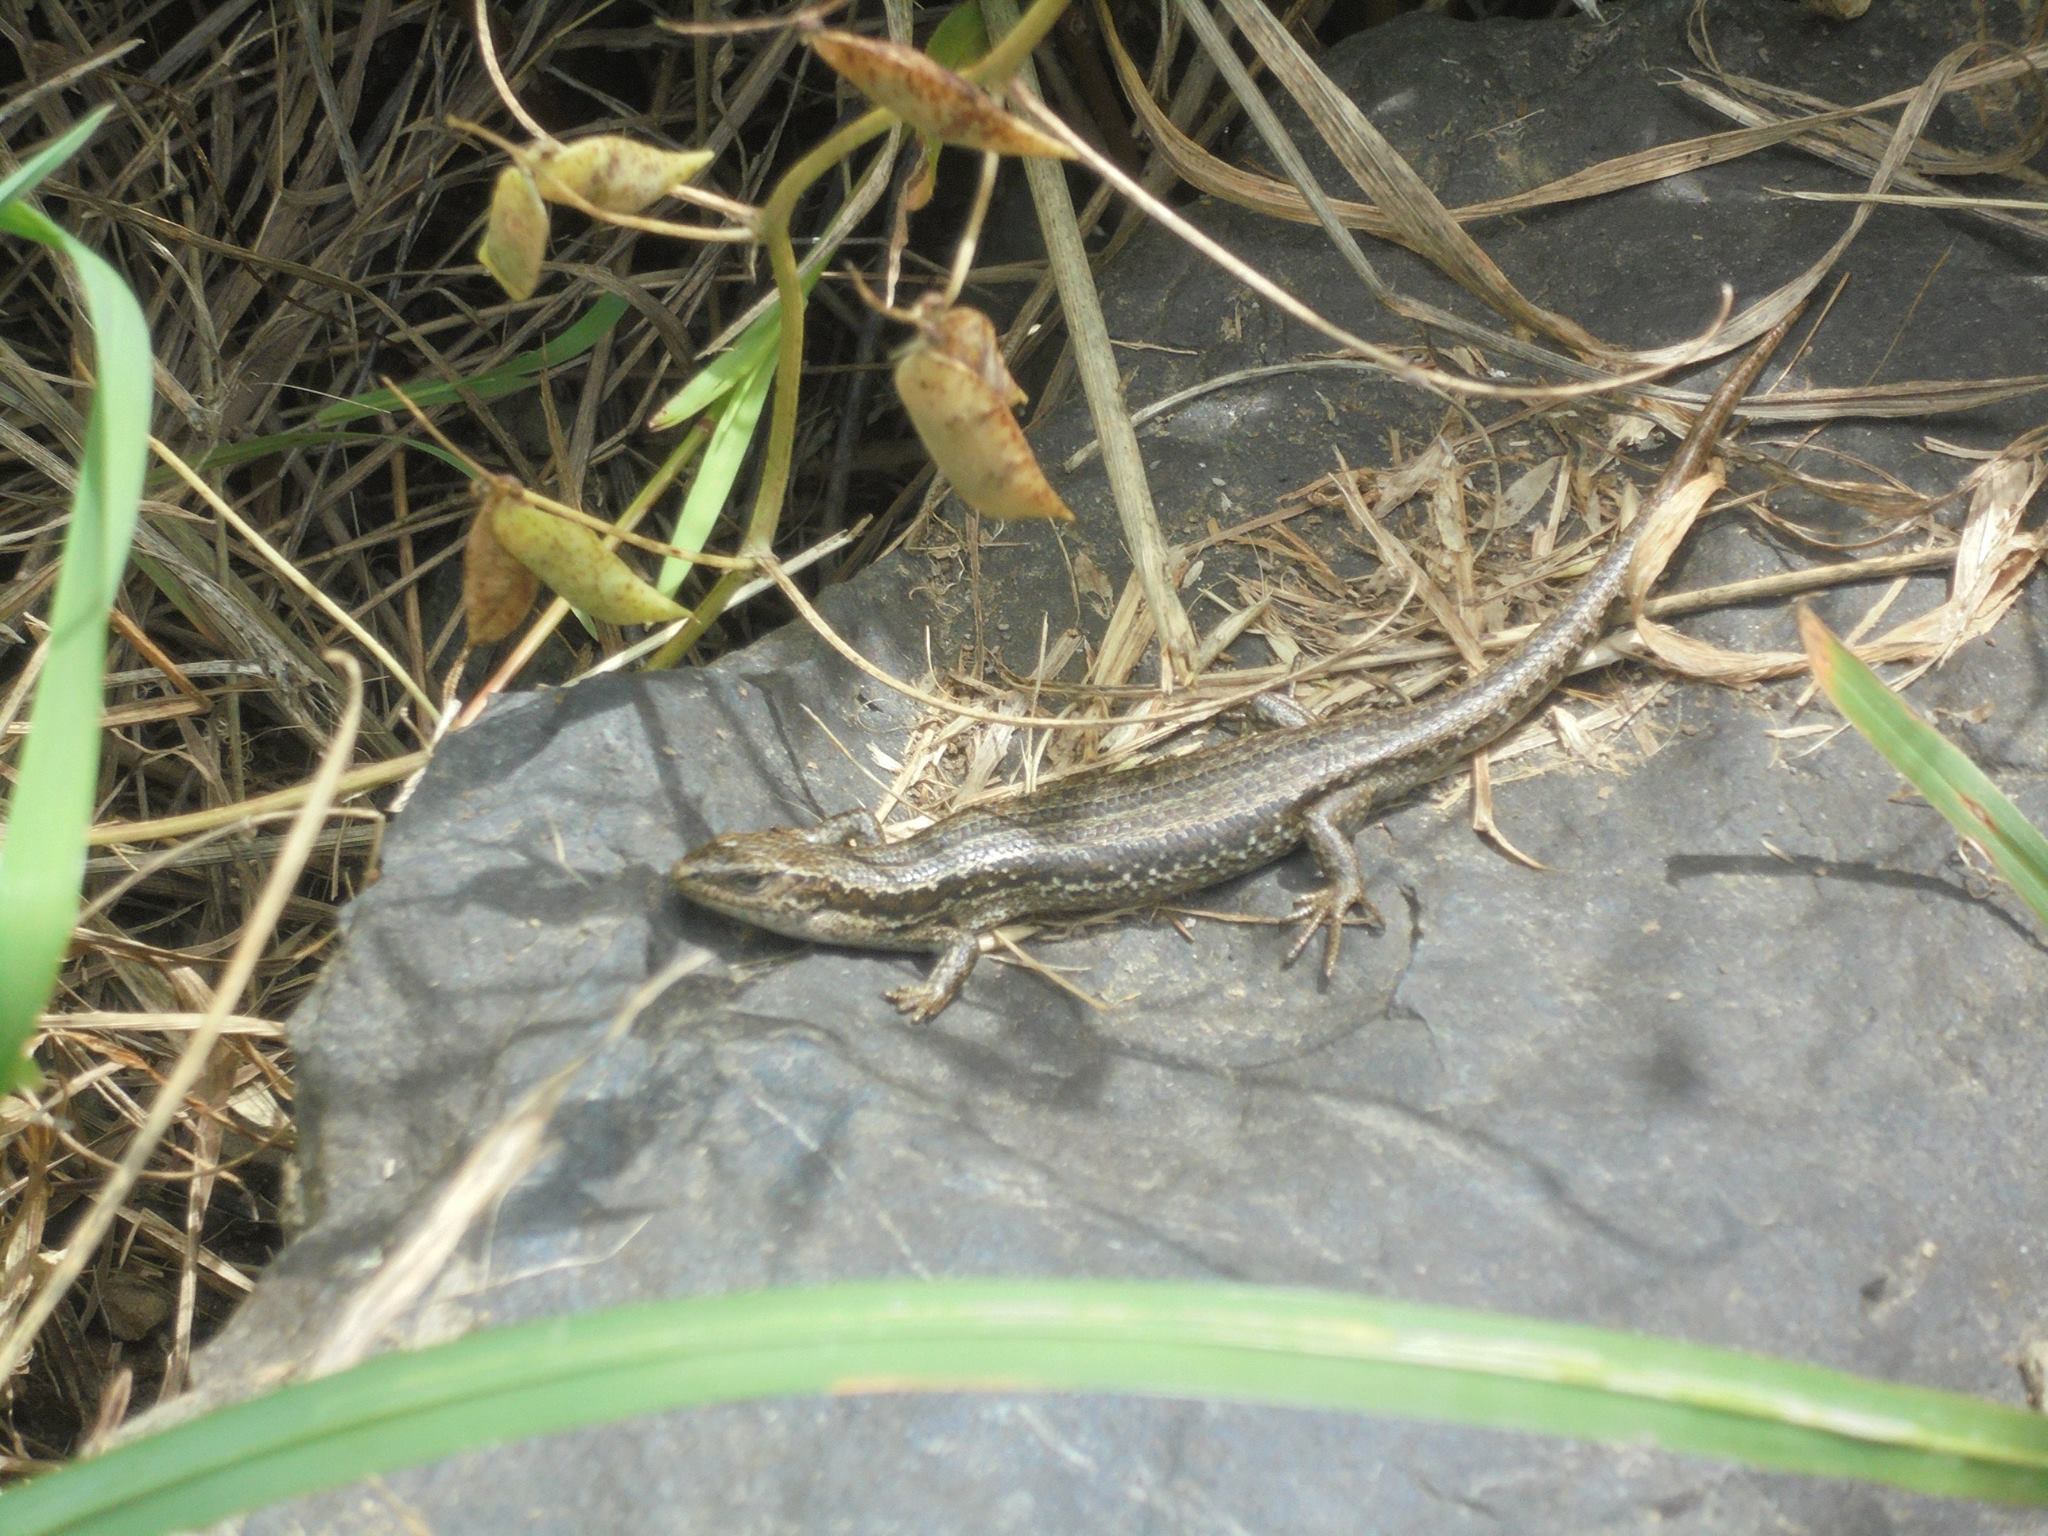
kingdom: Animalia
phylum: Chordata
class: Squamata
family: Scincidae
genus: Oligosoma
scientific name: Oligosoma polychroma
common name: Common new zealand skink
